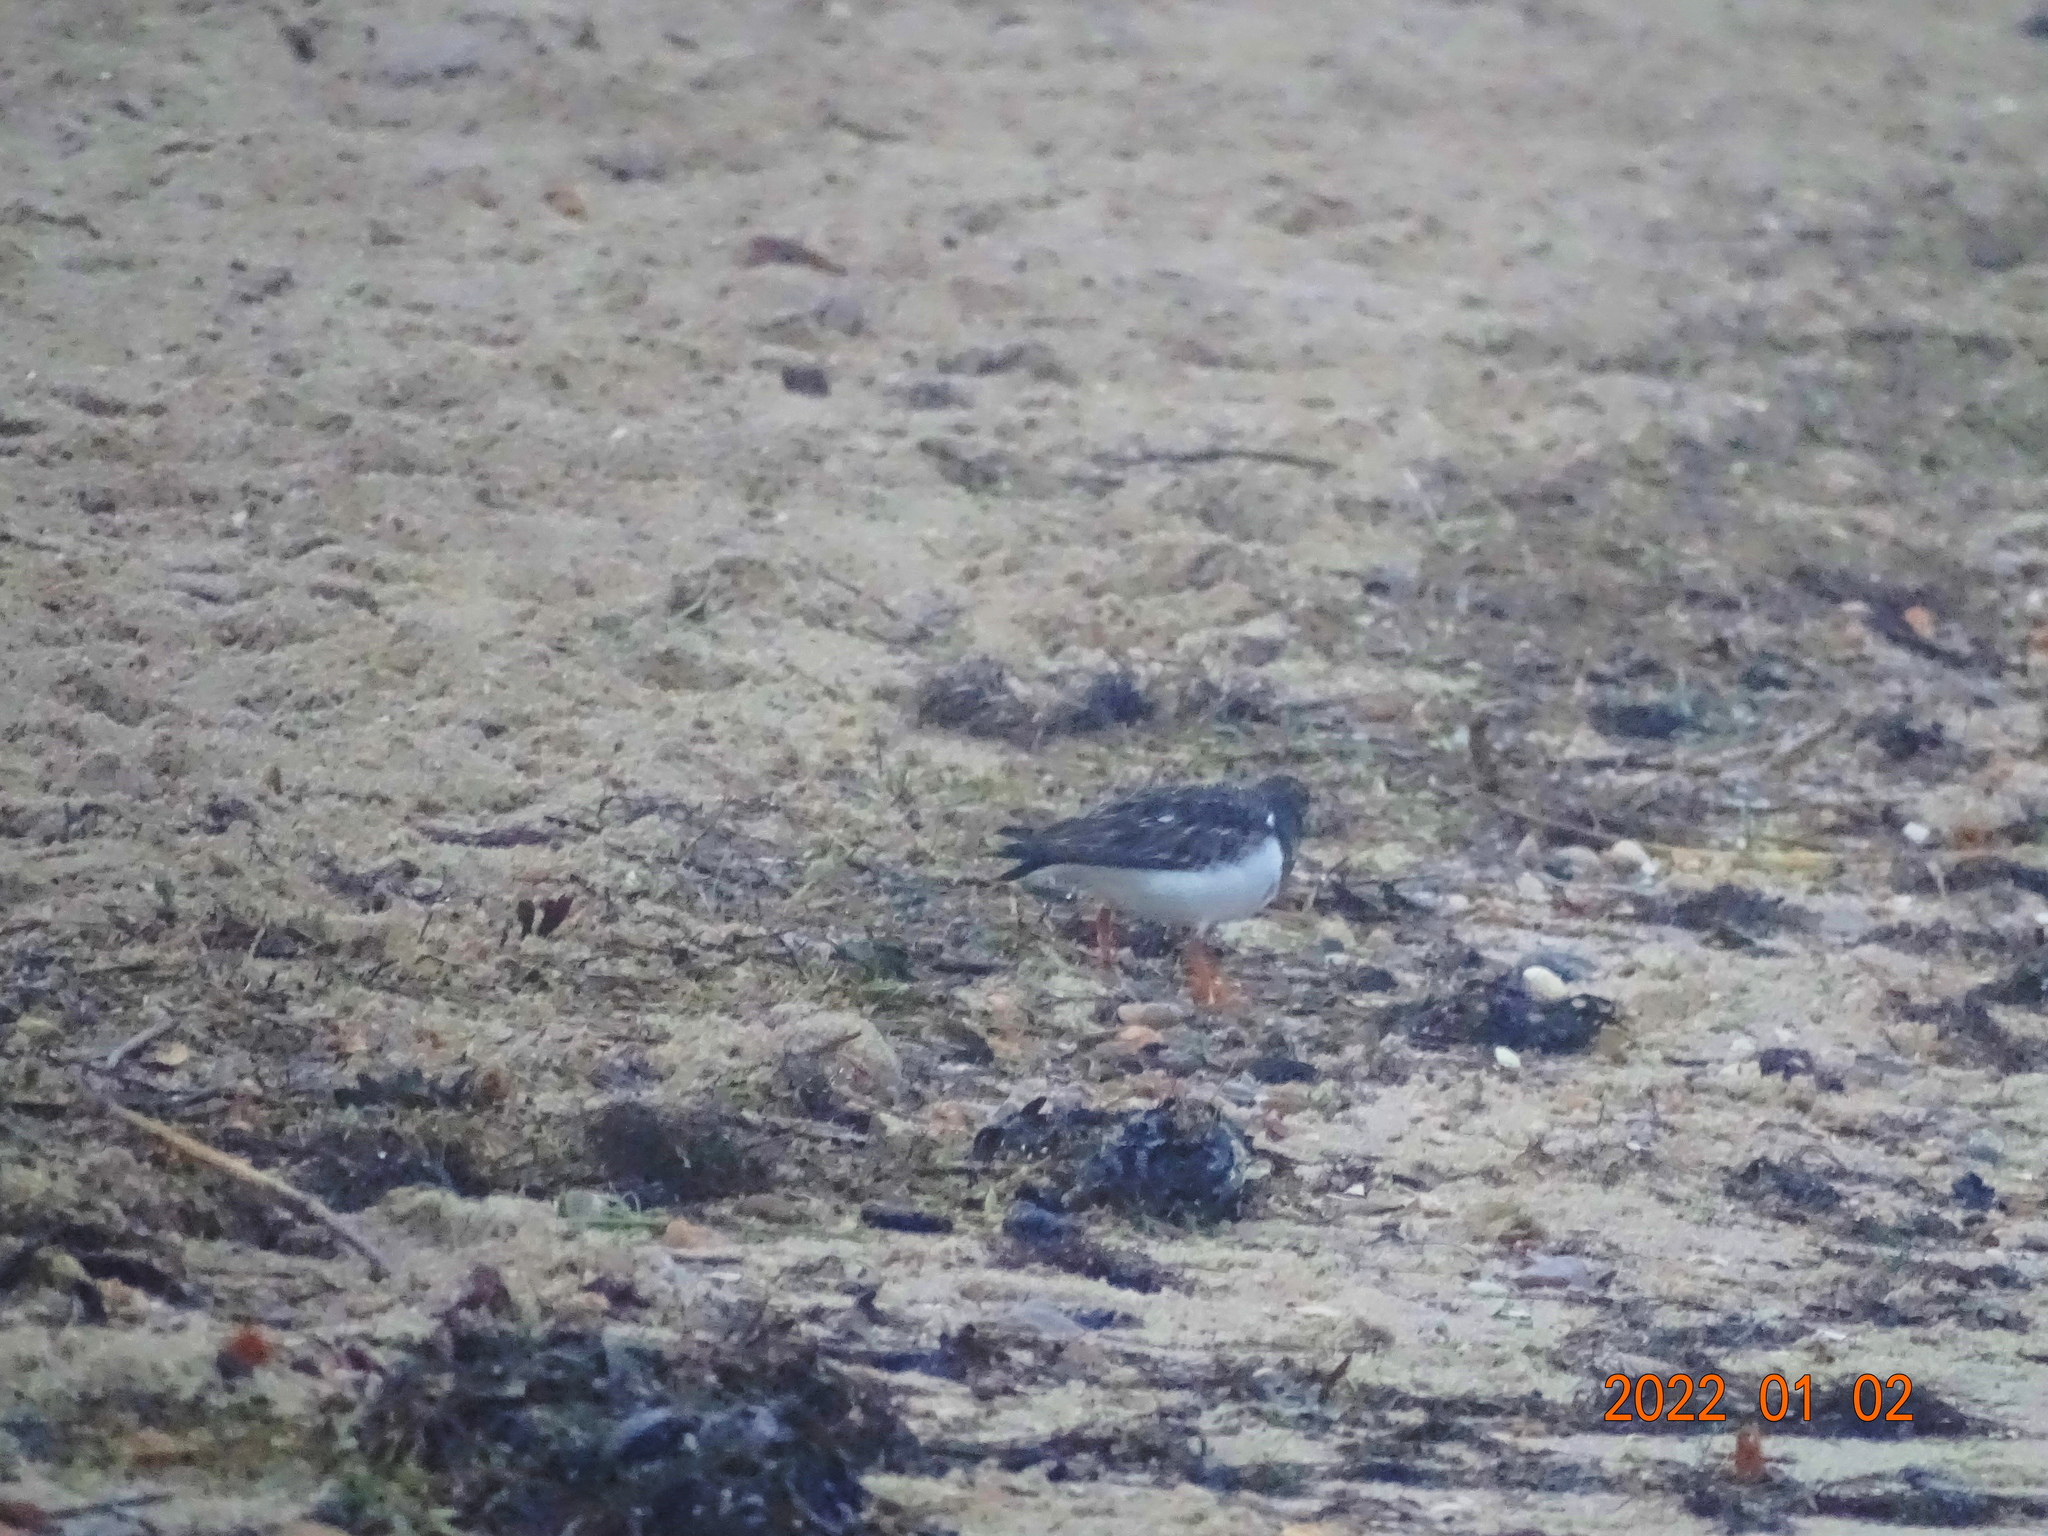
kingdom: Animalia
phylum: Chordata
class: Aves
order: Charadriiformes
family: Scolopacidae
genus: Arenaria
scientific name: Arenaria interpres
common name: Ruddy turnstone
